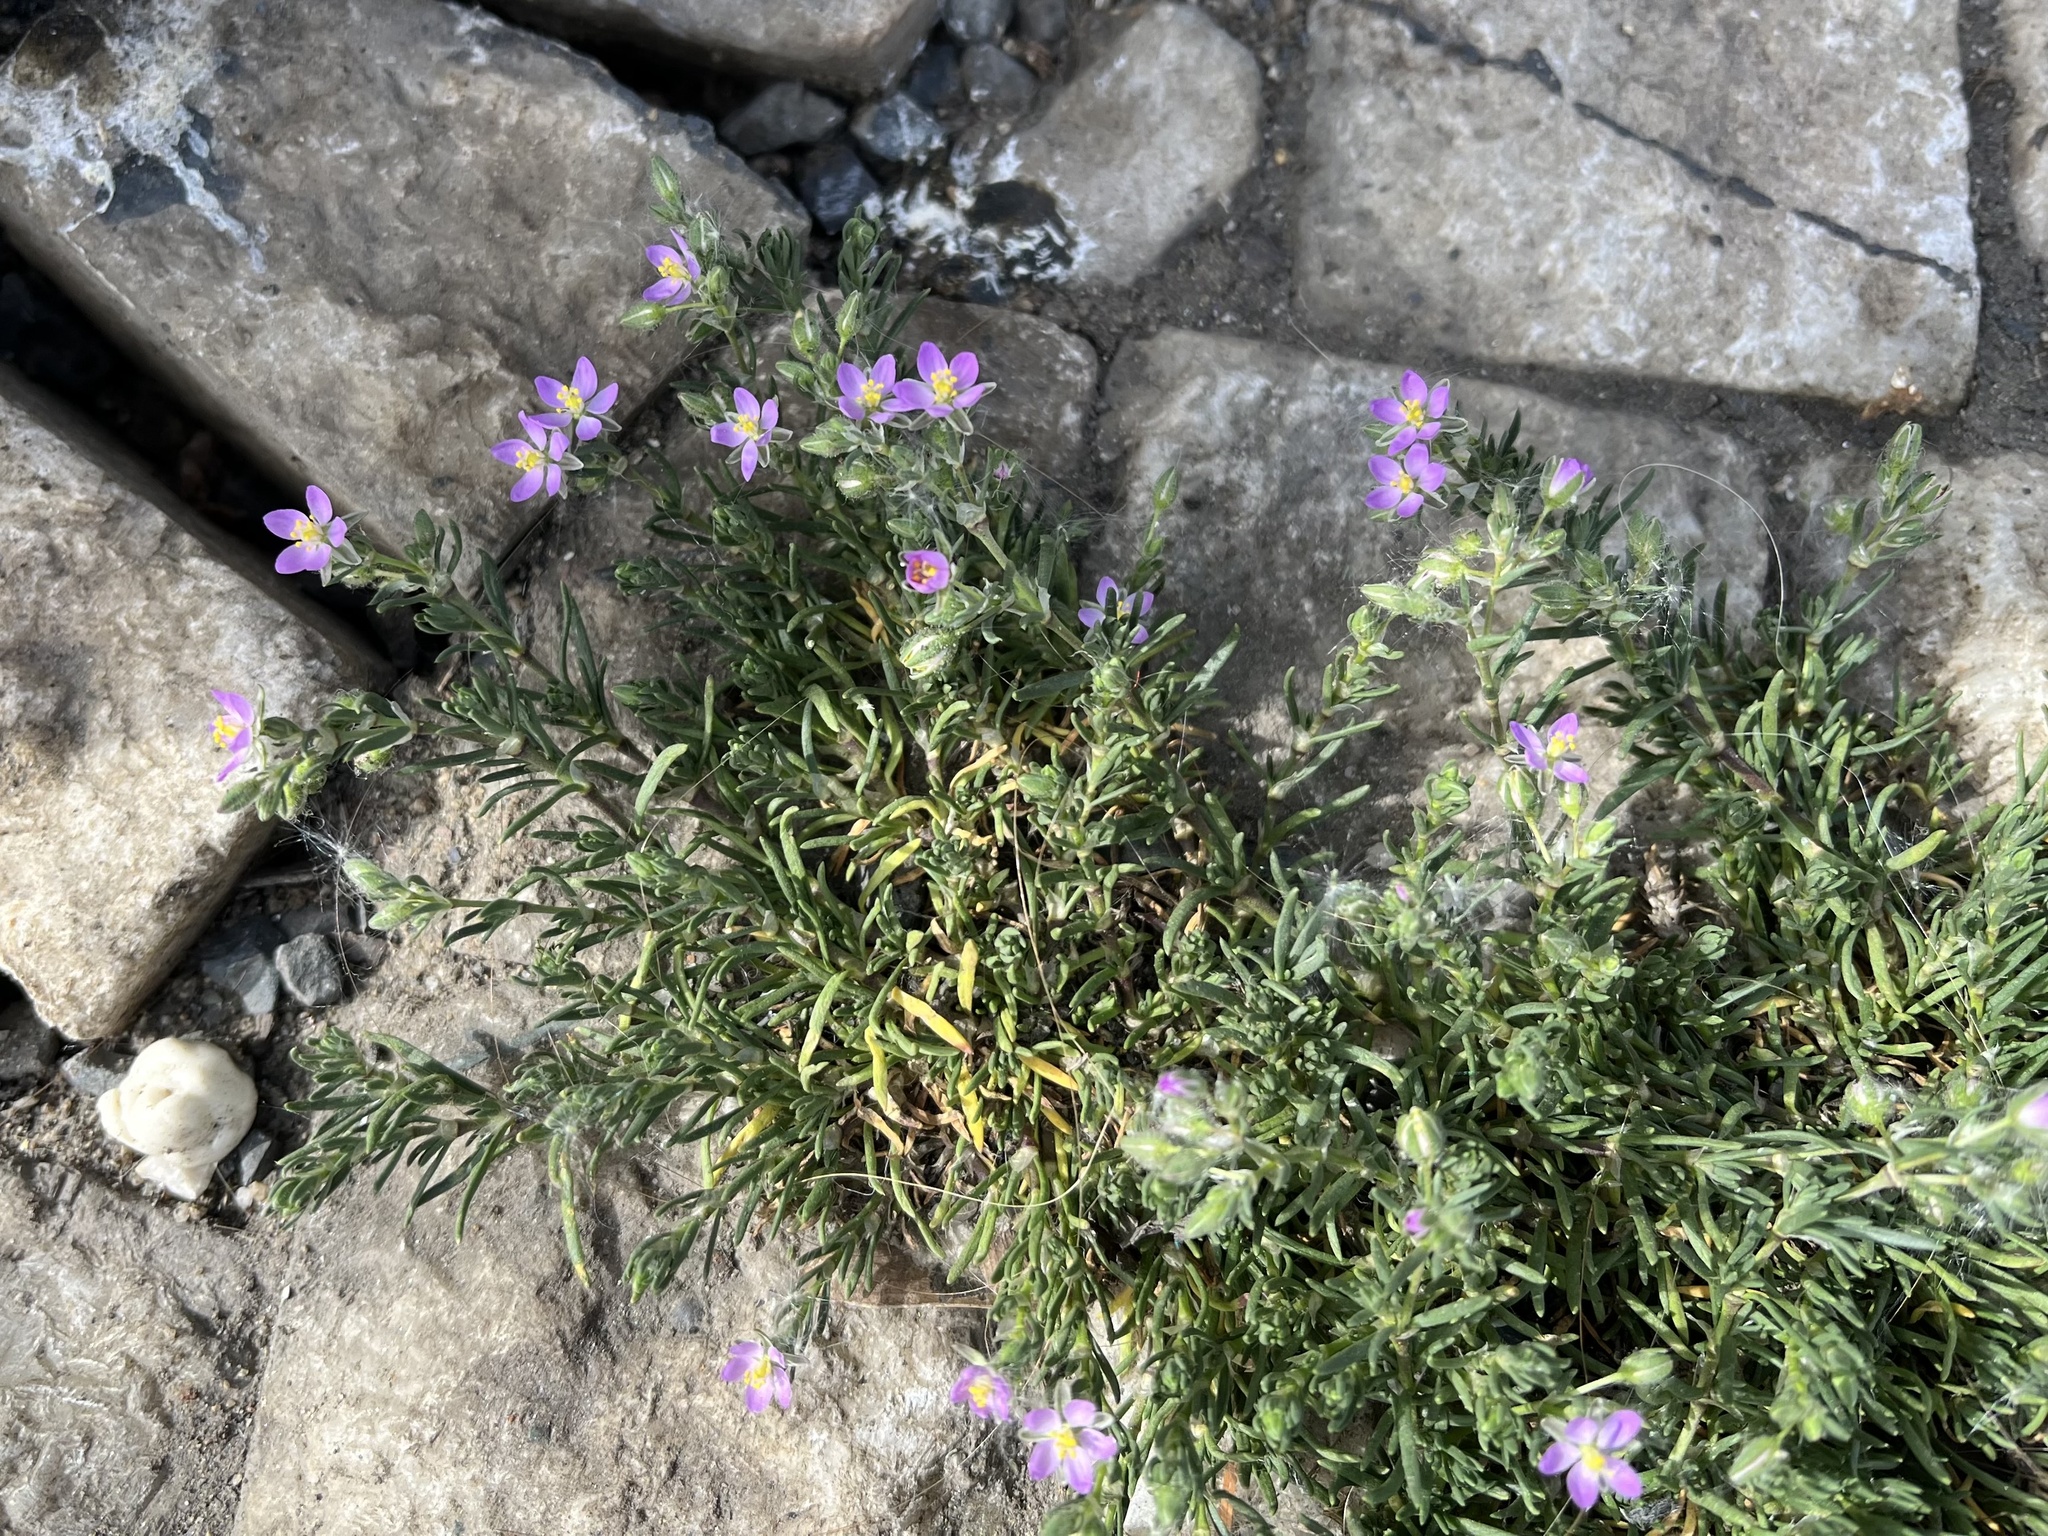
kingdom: Plantae
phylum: Tracheophyta
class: Magnoliopsida
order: Caryophyllales
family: Caryophyllaceae
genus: Spergularia
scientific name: Spergularia rubra
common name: Red sand-spurrey
